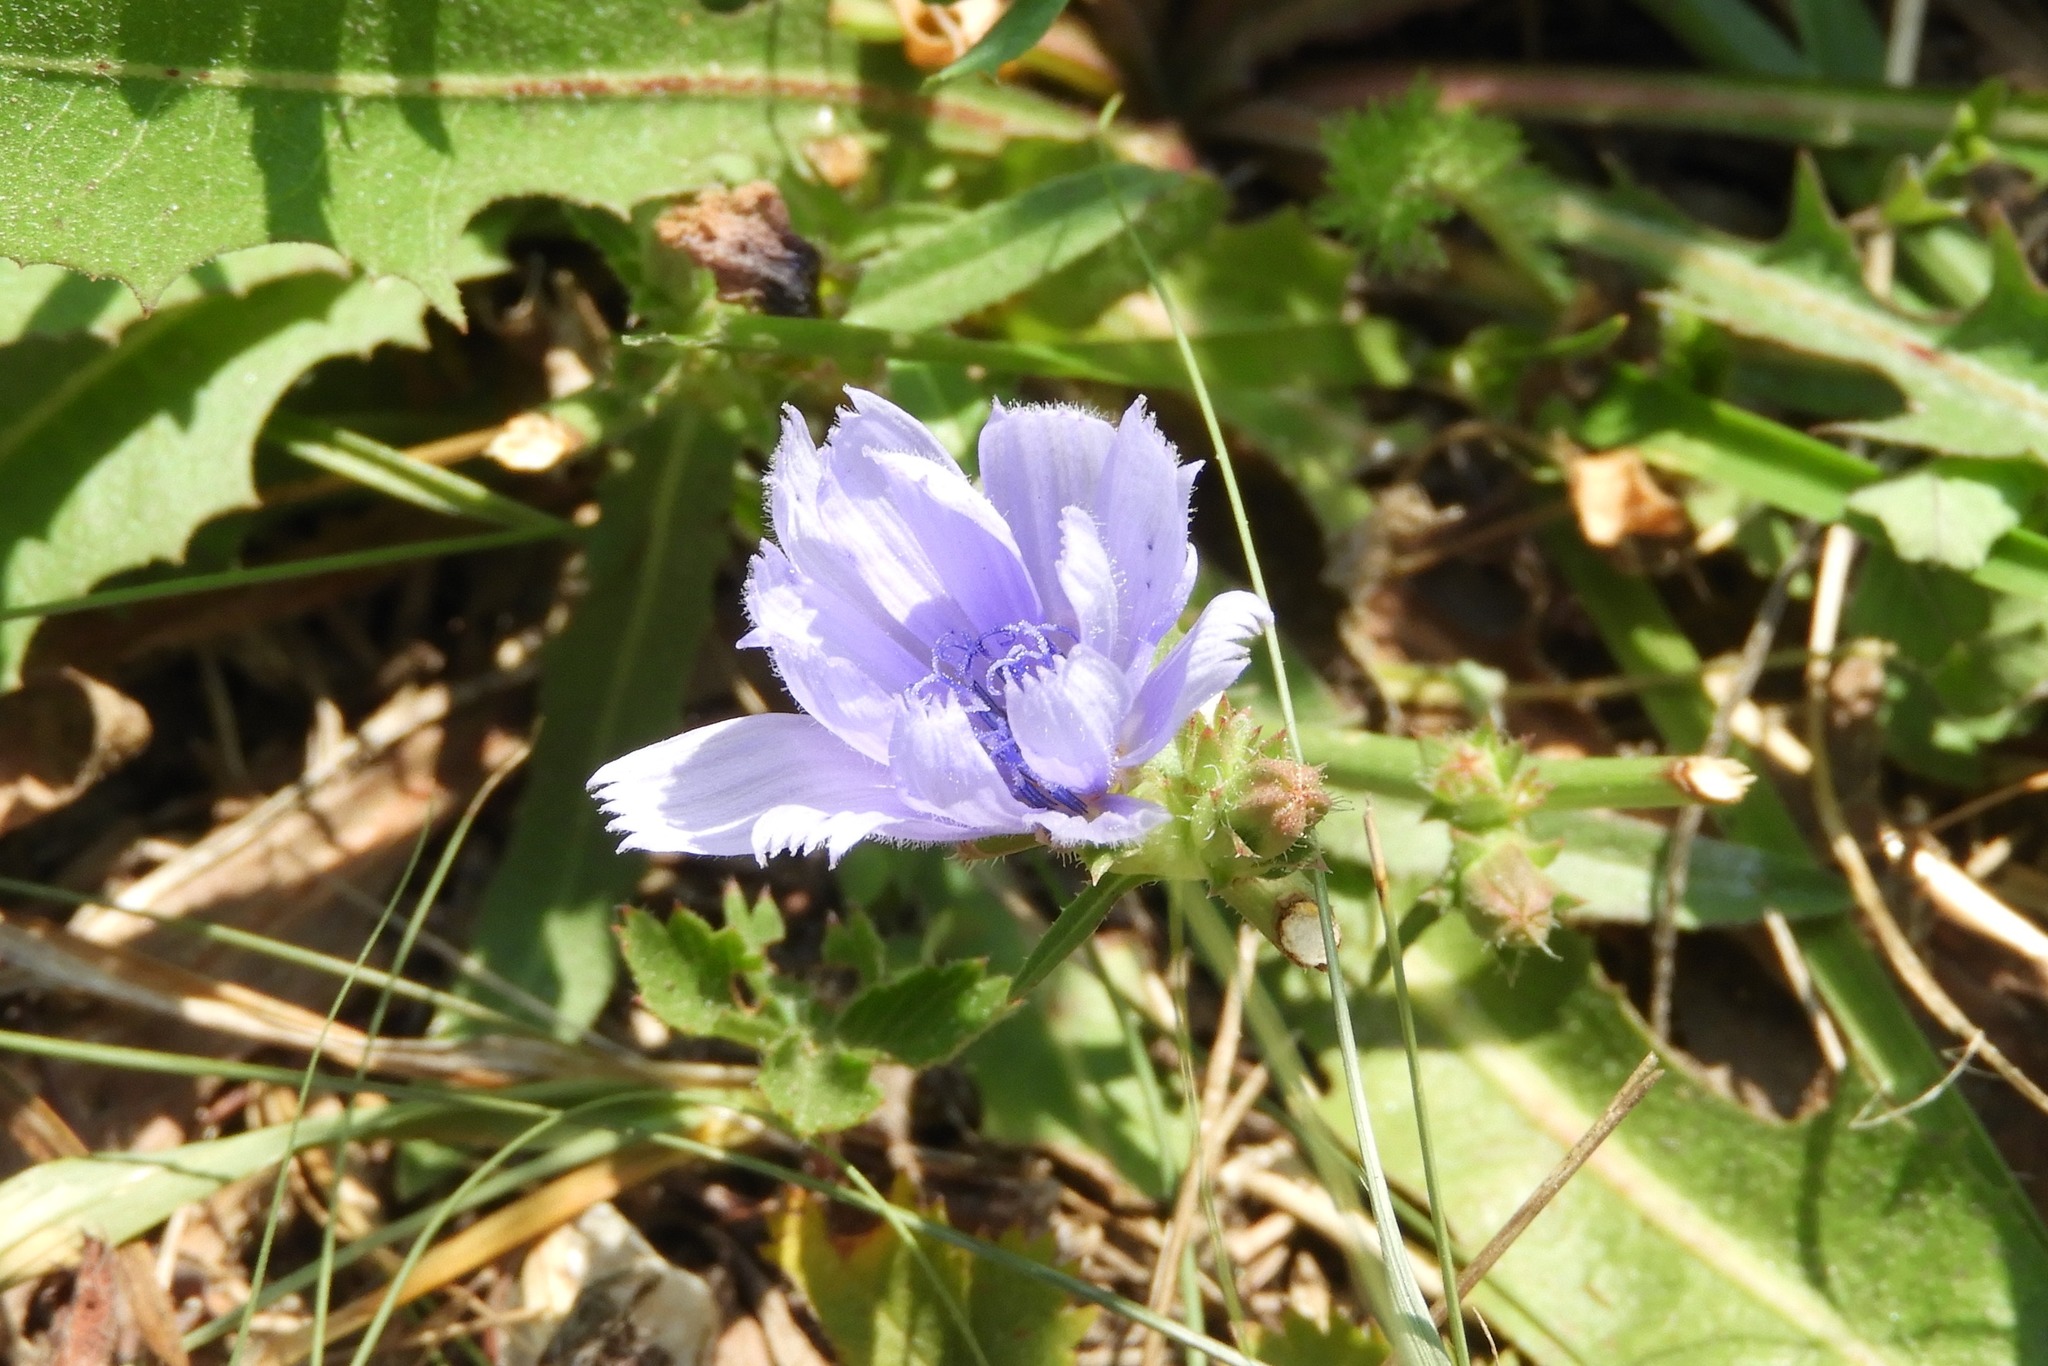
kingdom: Plantae
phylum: Tracheophyta
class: Magnoliopsida
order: Asterales
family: Asteraceae
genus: Cichorium
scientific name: Cichorium intybus
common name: Chicory
